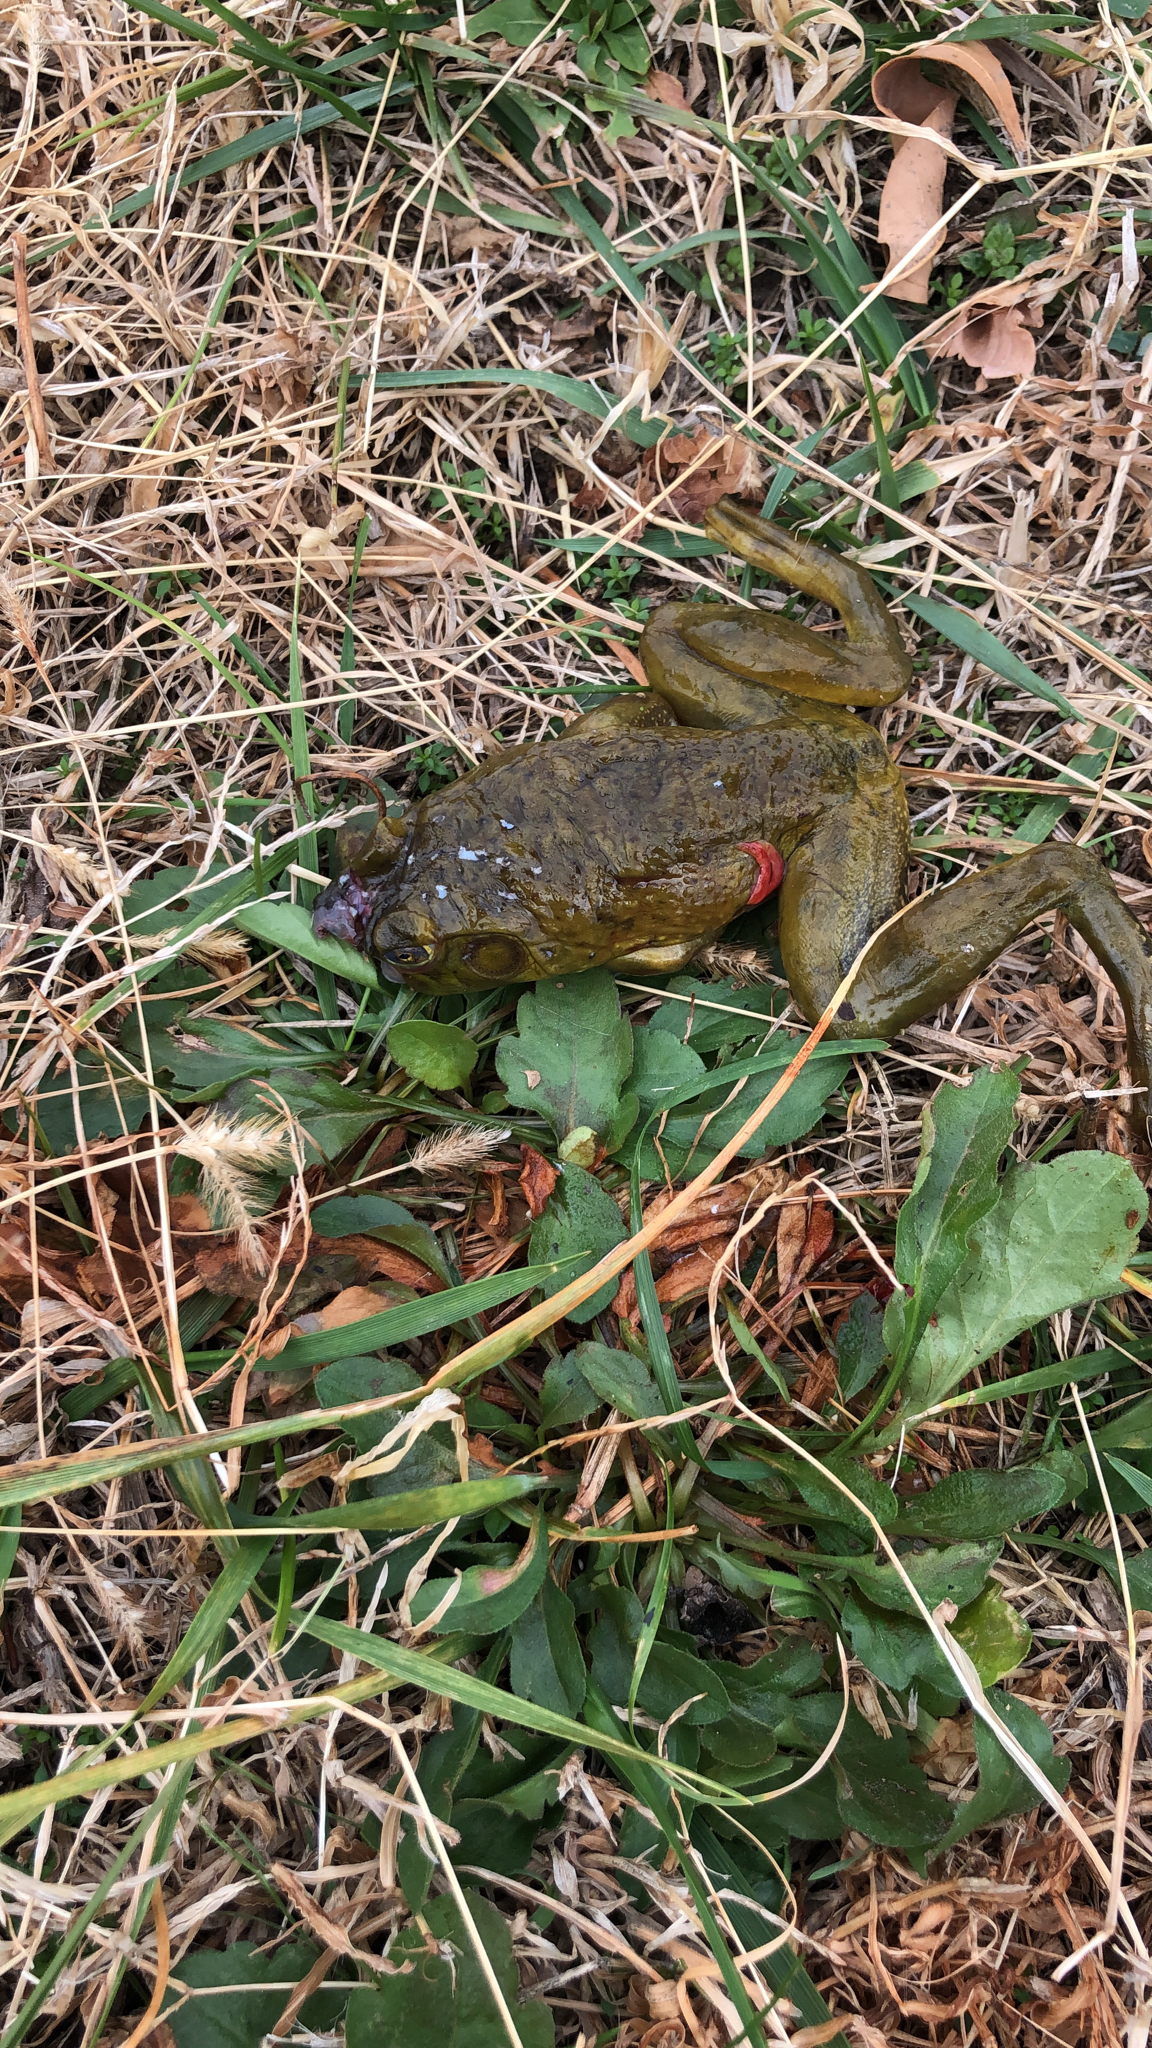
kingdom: Animalia
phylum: Chordata
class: Amphibia
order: Anura
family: Ranidae
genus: Lithobates
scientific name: Lithobates catesbeianus
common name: American bullfrog
